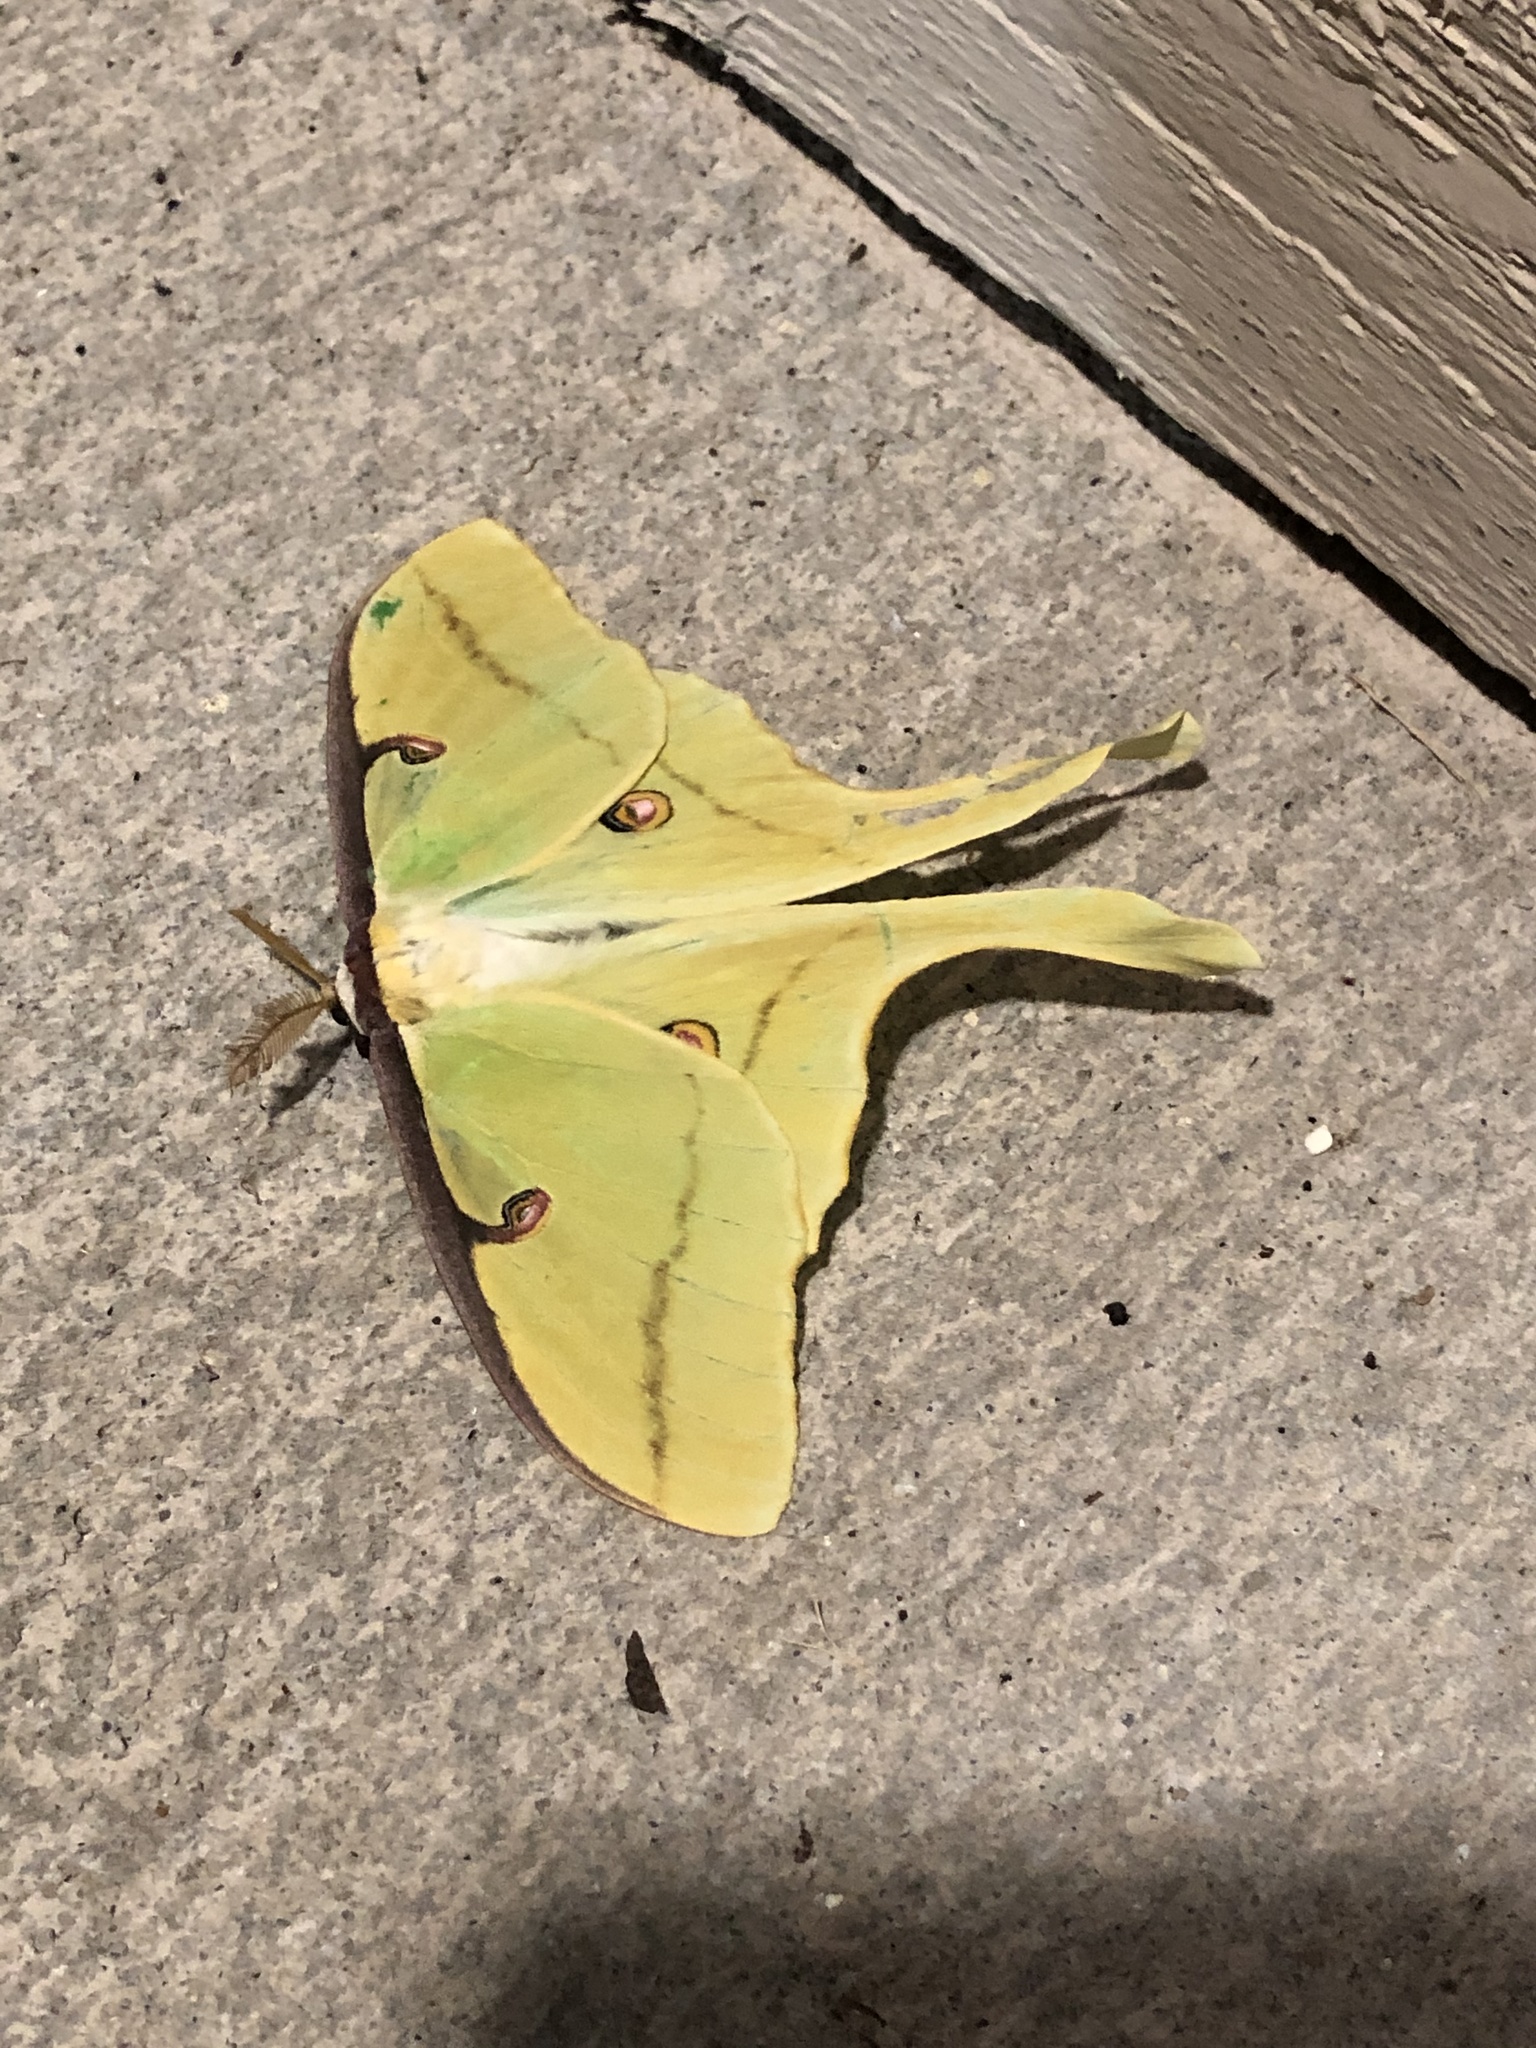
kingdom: Animalia
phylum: Arthropoda
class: Insecta
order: Lepidoptera
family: Saturniidae
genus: Actias
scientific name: Actias luna
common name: Luna moth
